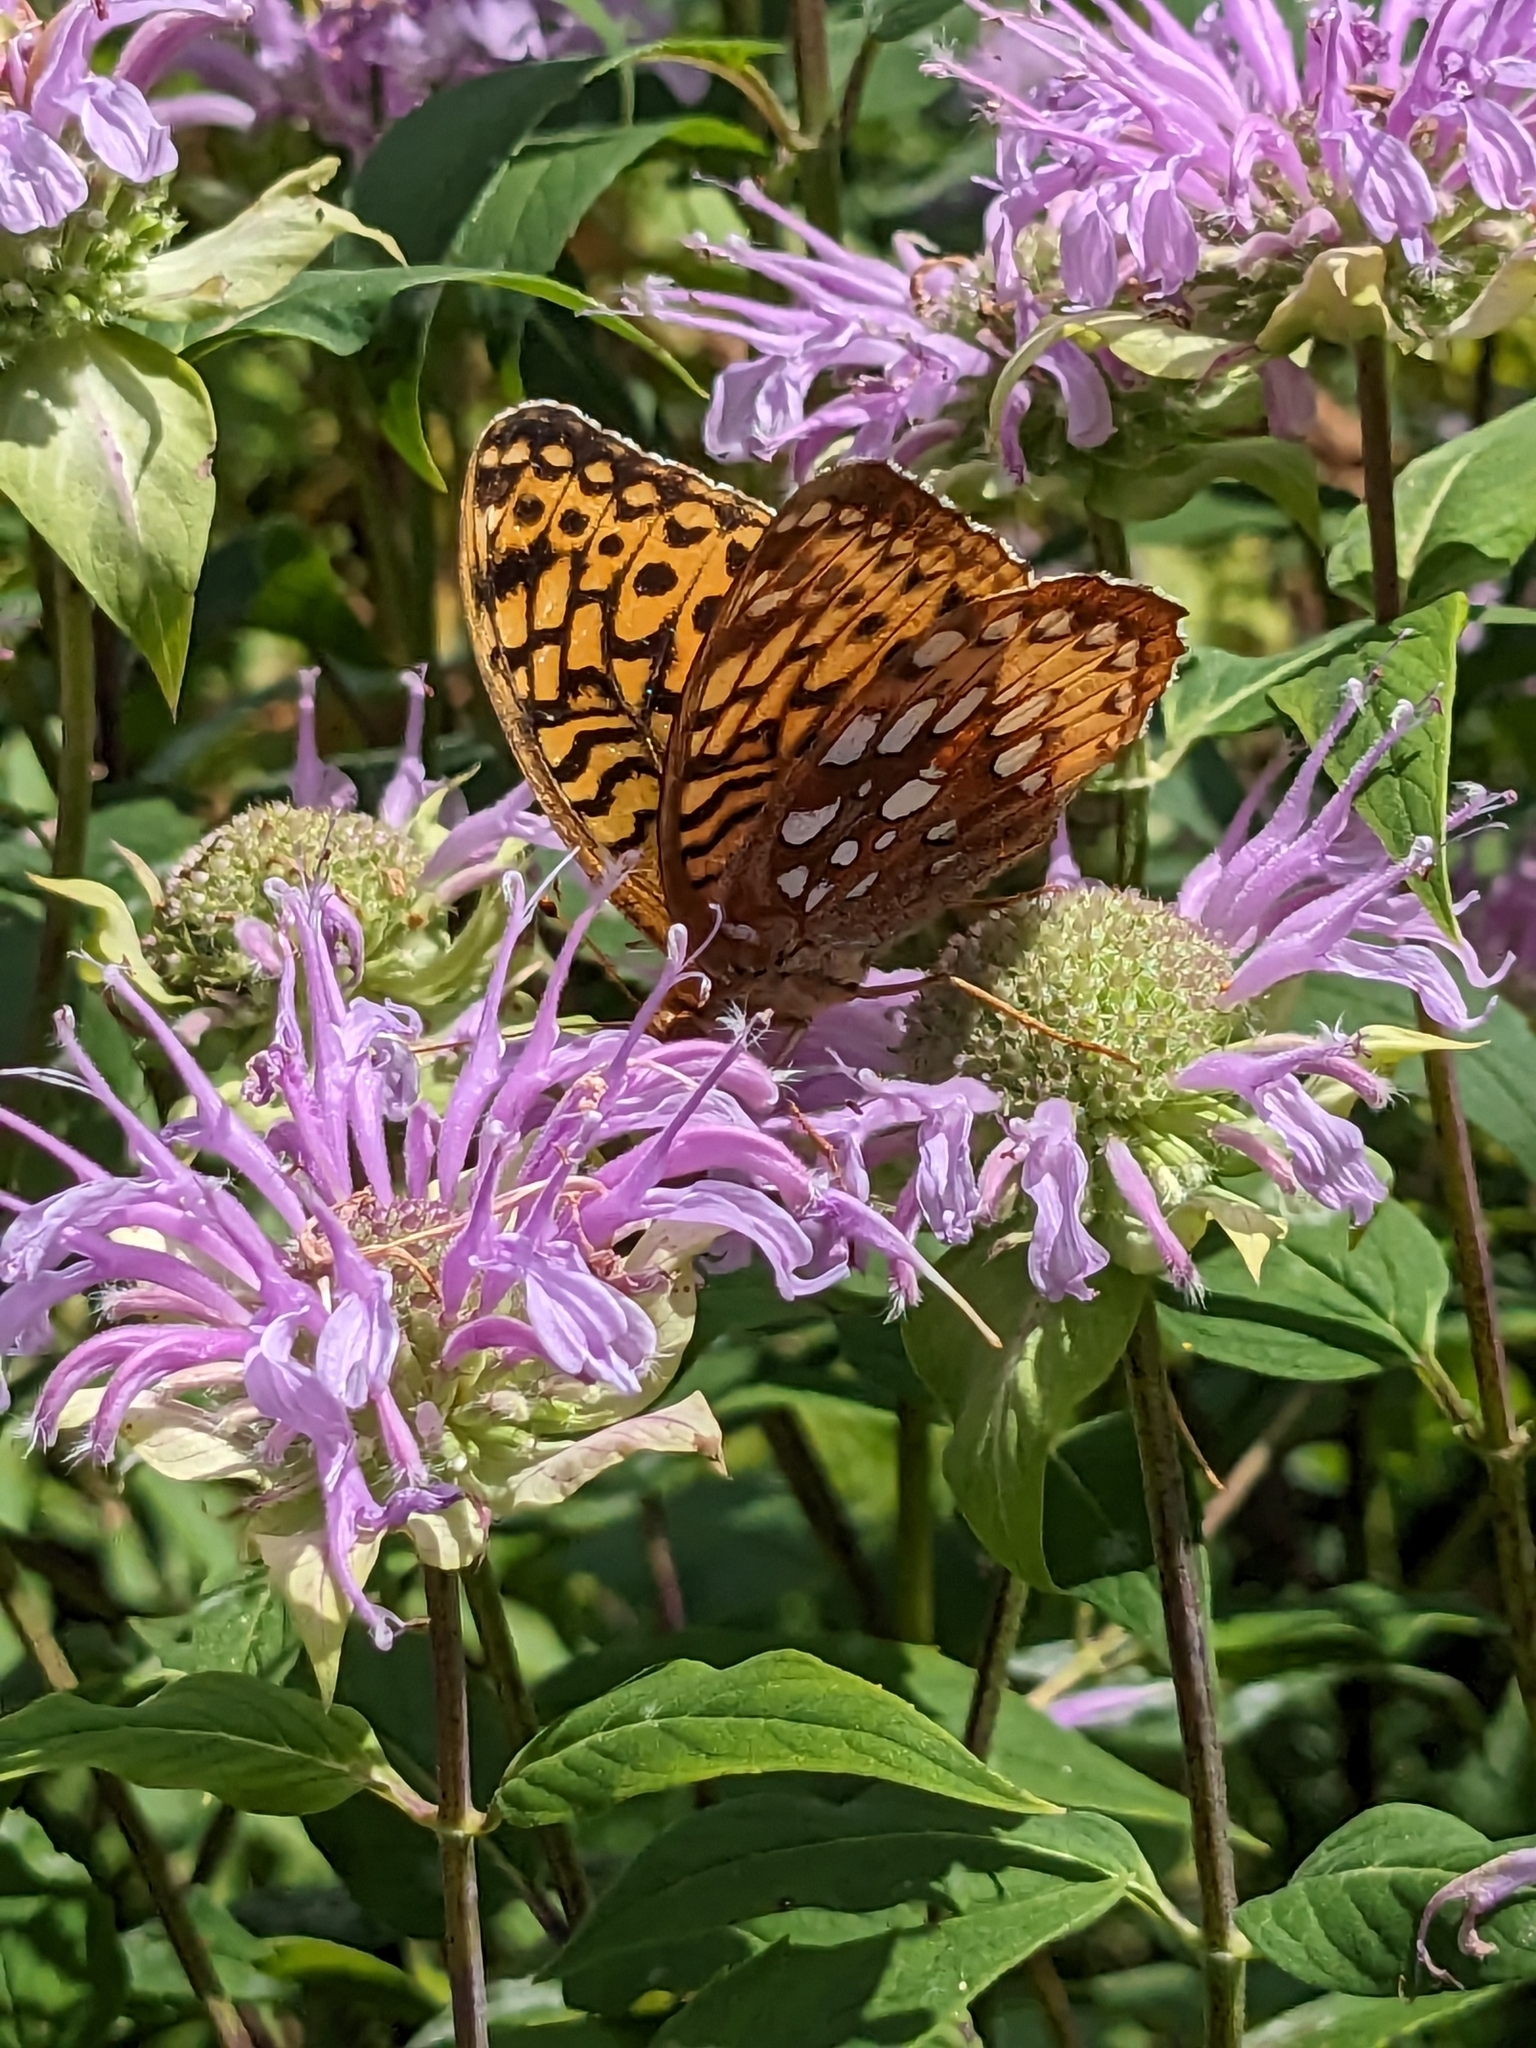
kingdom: Animalia
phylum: Arthropoda
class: Insecta
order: Lepidoptera
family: Nymphalidae
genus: Speyeria
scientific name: Speyeria cybele
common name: Great spangled fritillary
